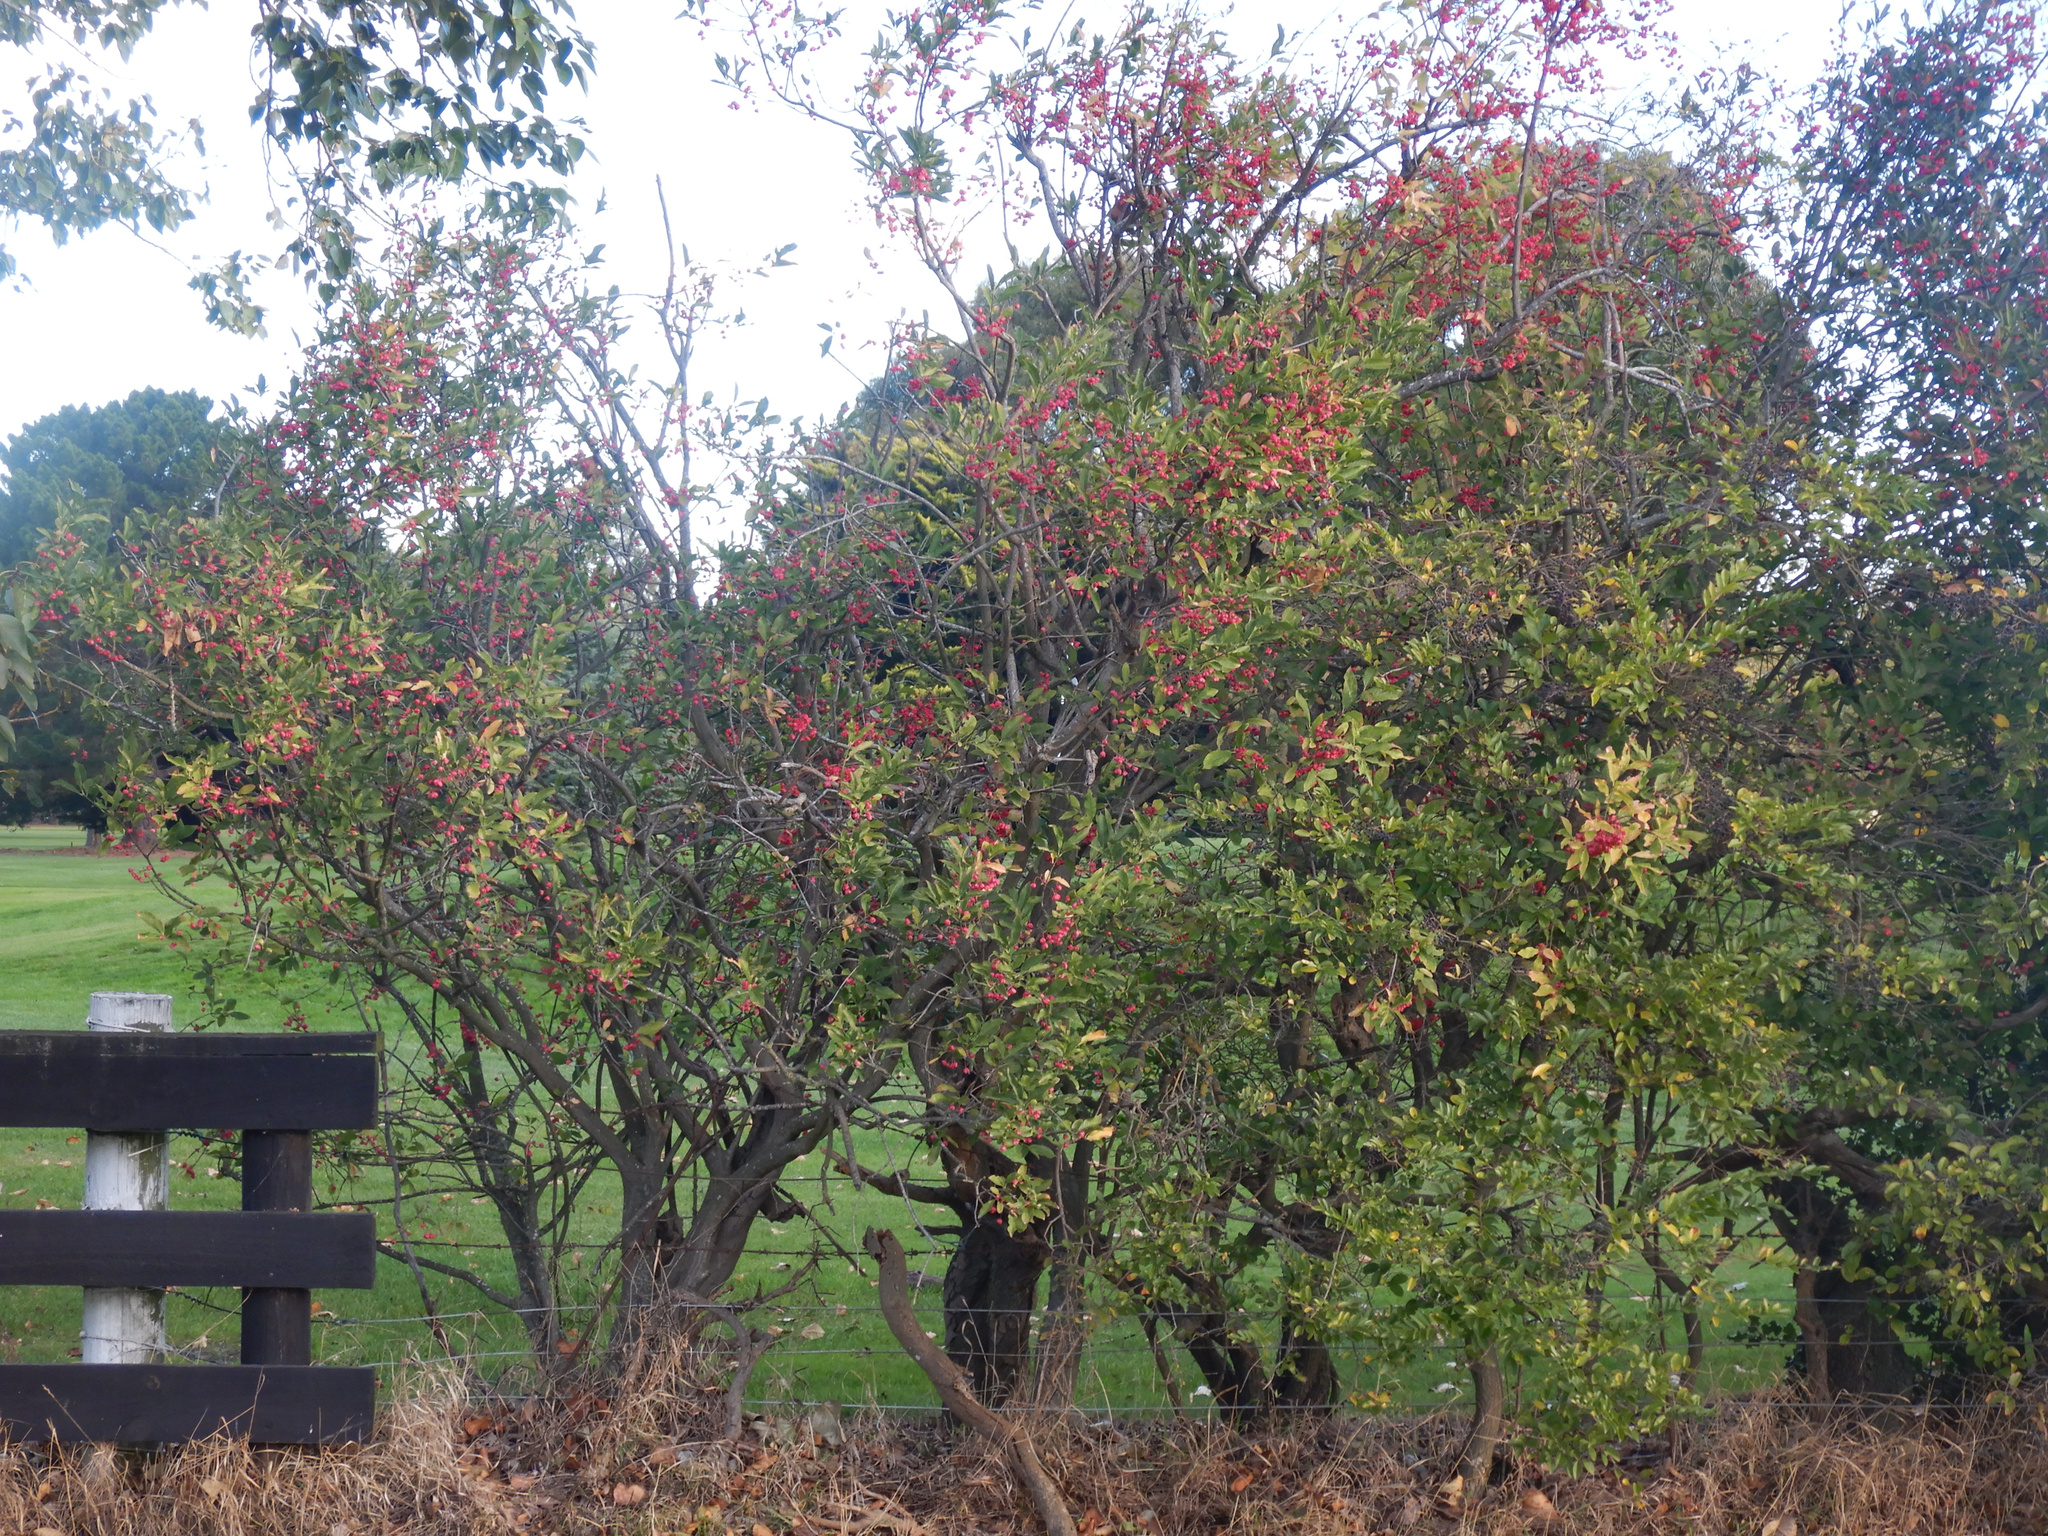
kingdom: Plantae
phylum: Tracheophyta
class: Magnoliopsida
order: Celastrales
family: Celastraceae
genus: Euonymus
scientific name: Euonymus europaeus
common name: Spindle
